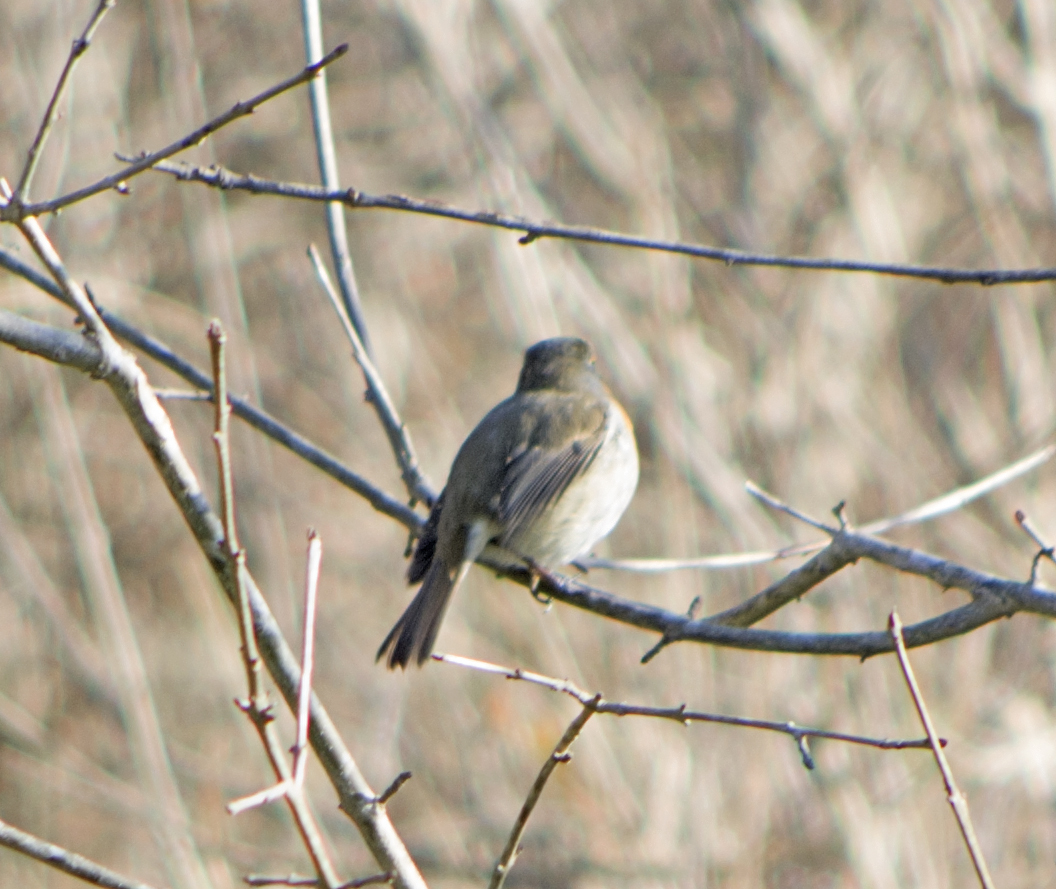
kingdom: Animalia
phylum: Chordata
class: Aves
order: Passeriformes
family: Muscicapidae
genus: Erithacus
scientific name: Erithacus rubecula
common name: European robin
